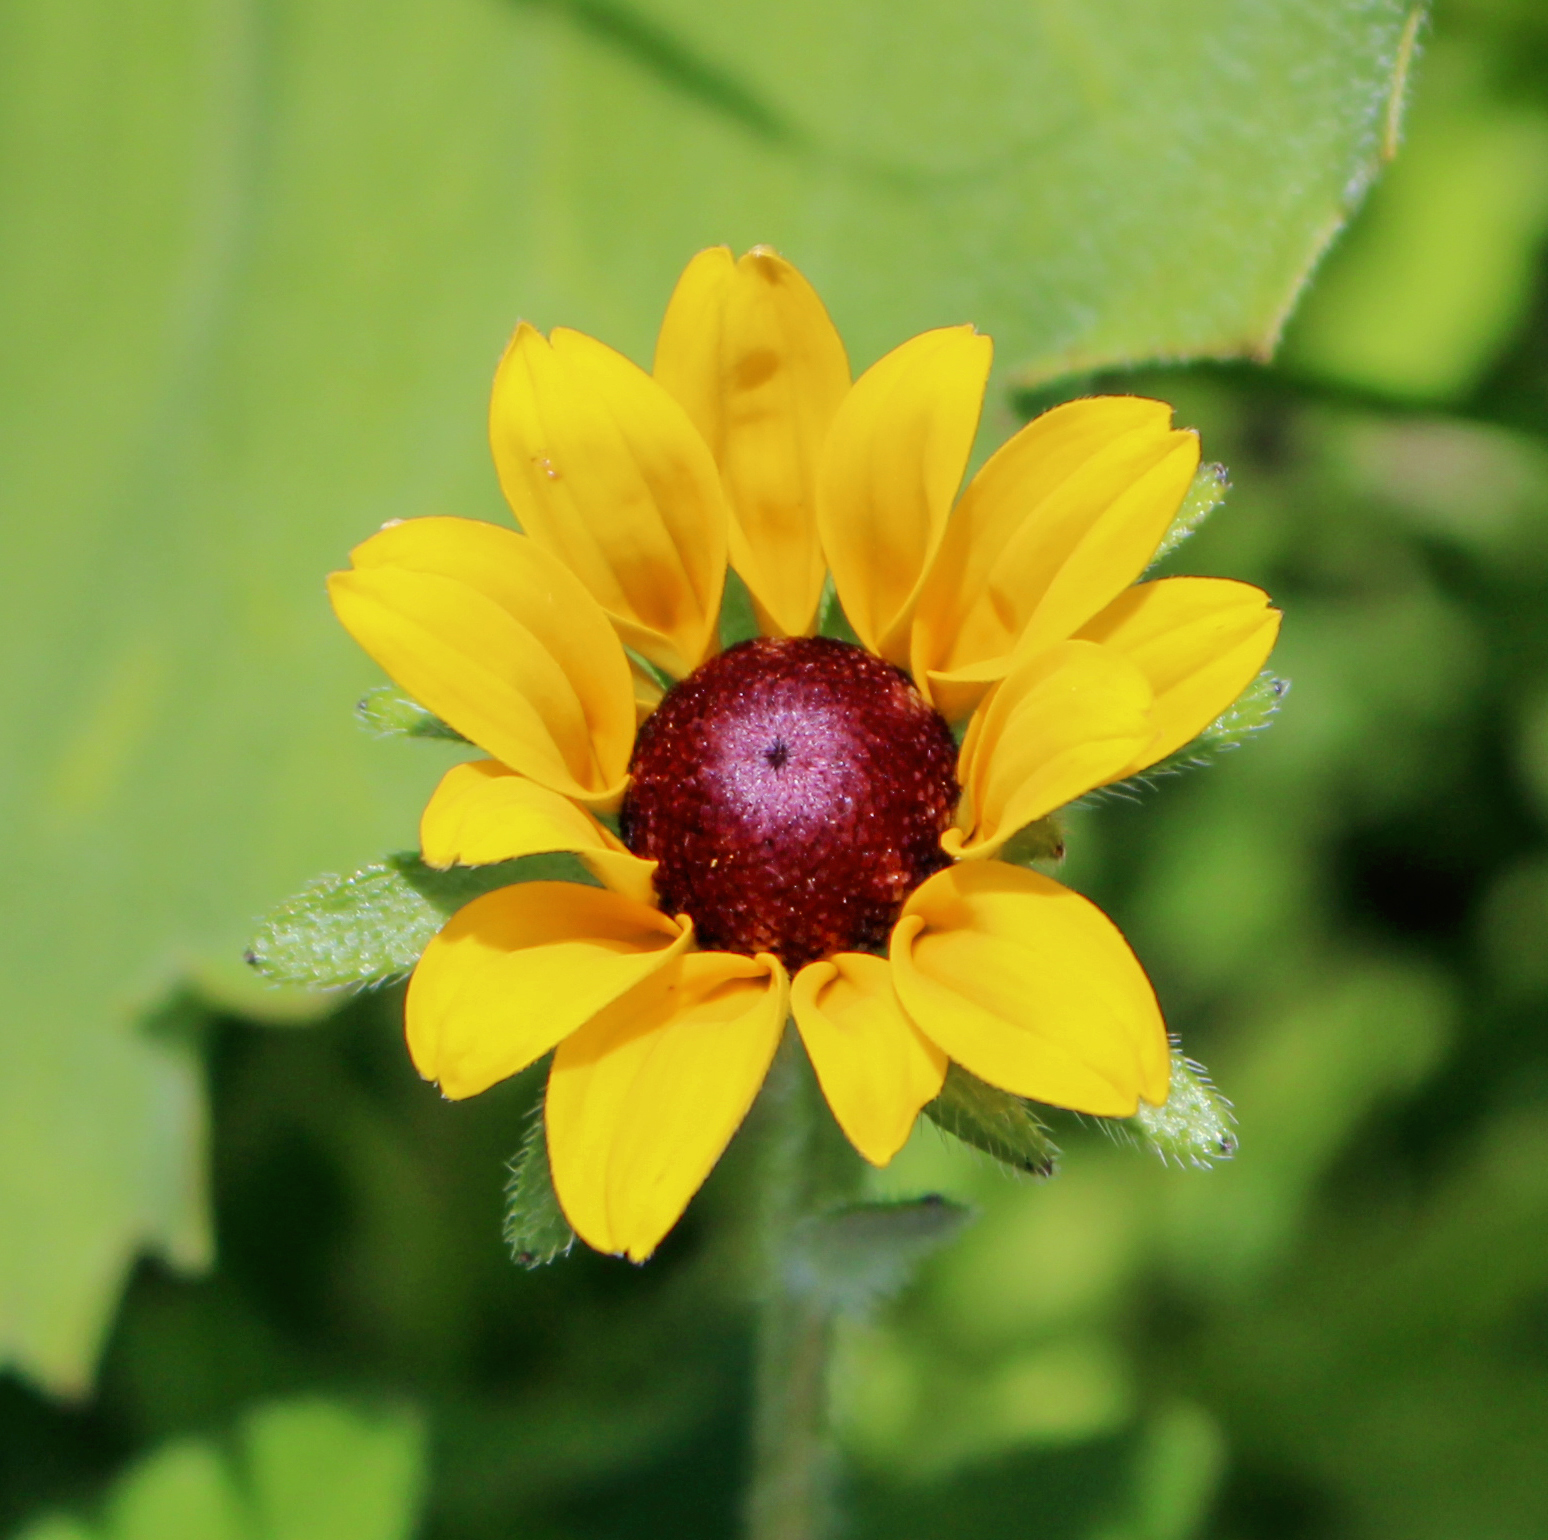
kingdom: Plantae
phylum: Tracheophyta
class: Magnoliopsida
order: Asterales
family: Asteraceae
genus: Rudbeckia
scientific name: Rudbeckia hirta
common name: Black-eyed-susan
